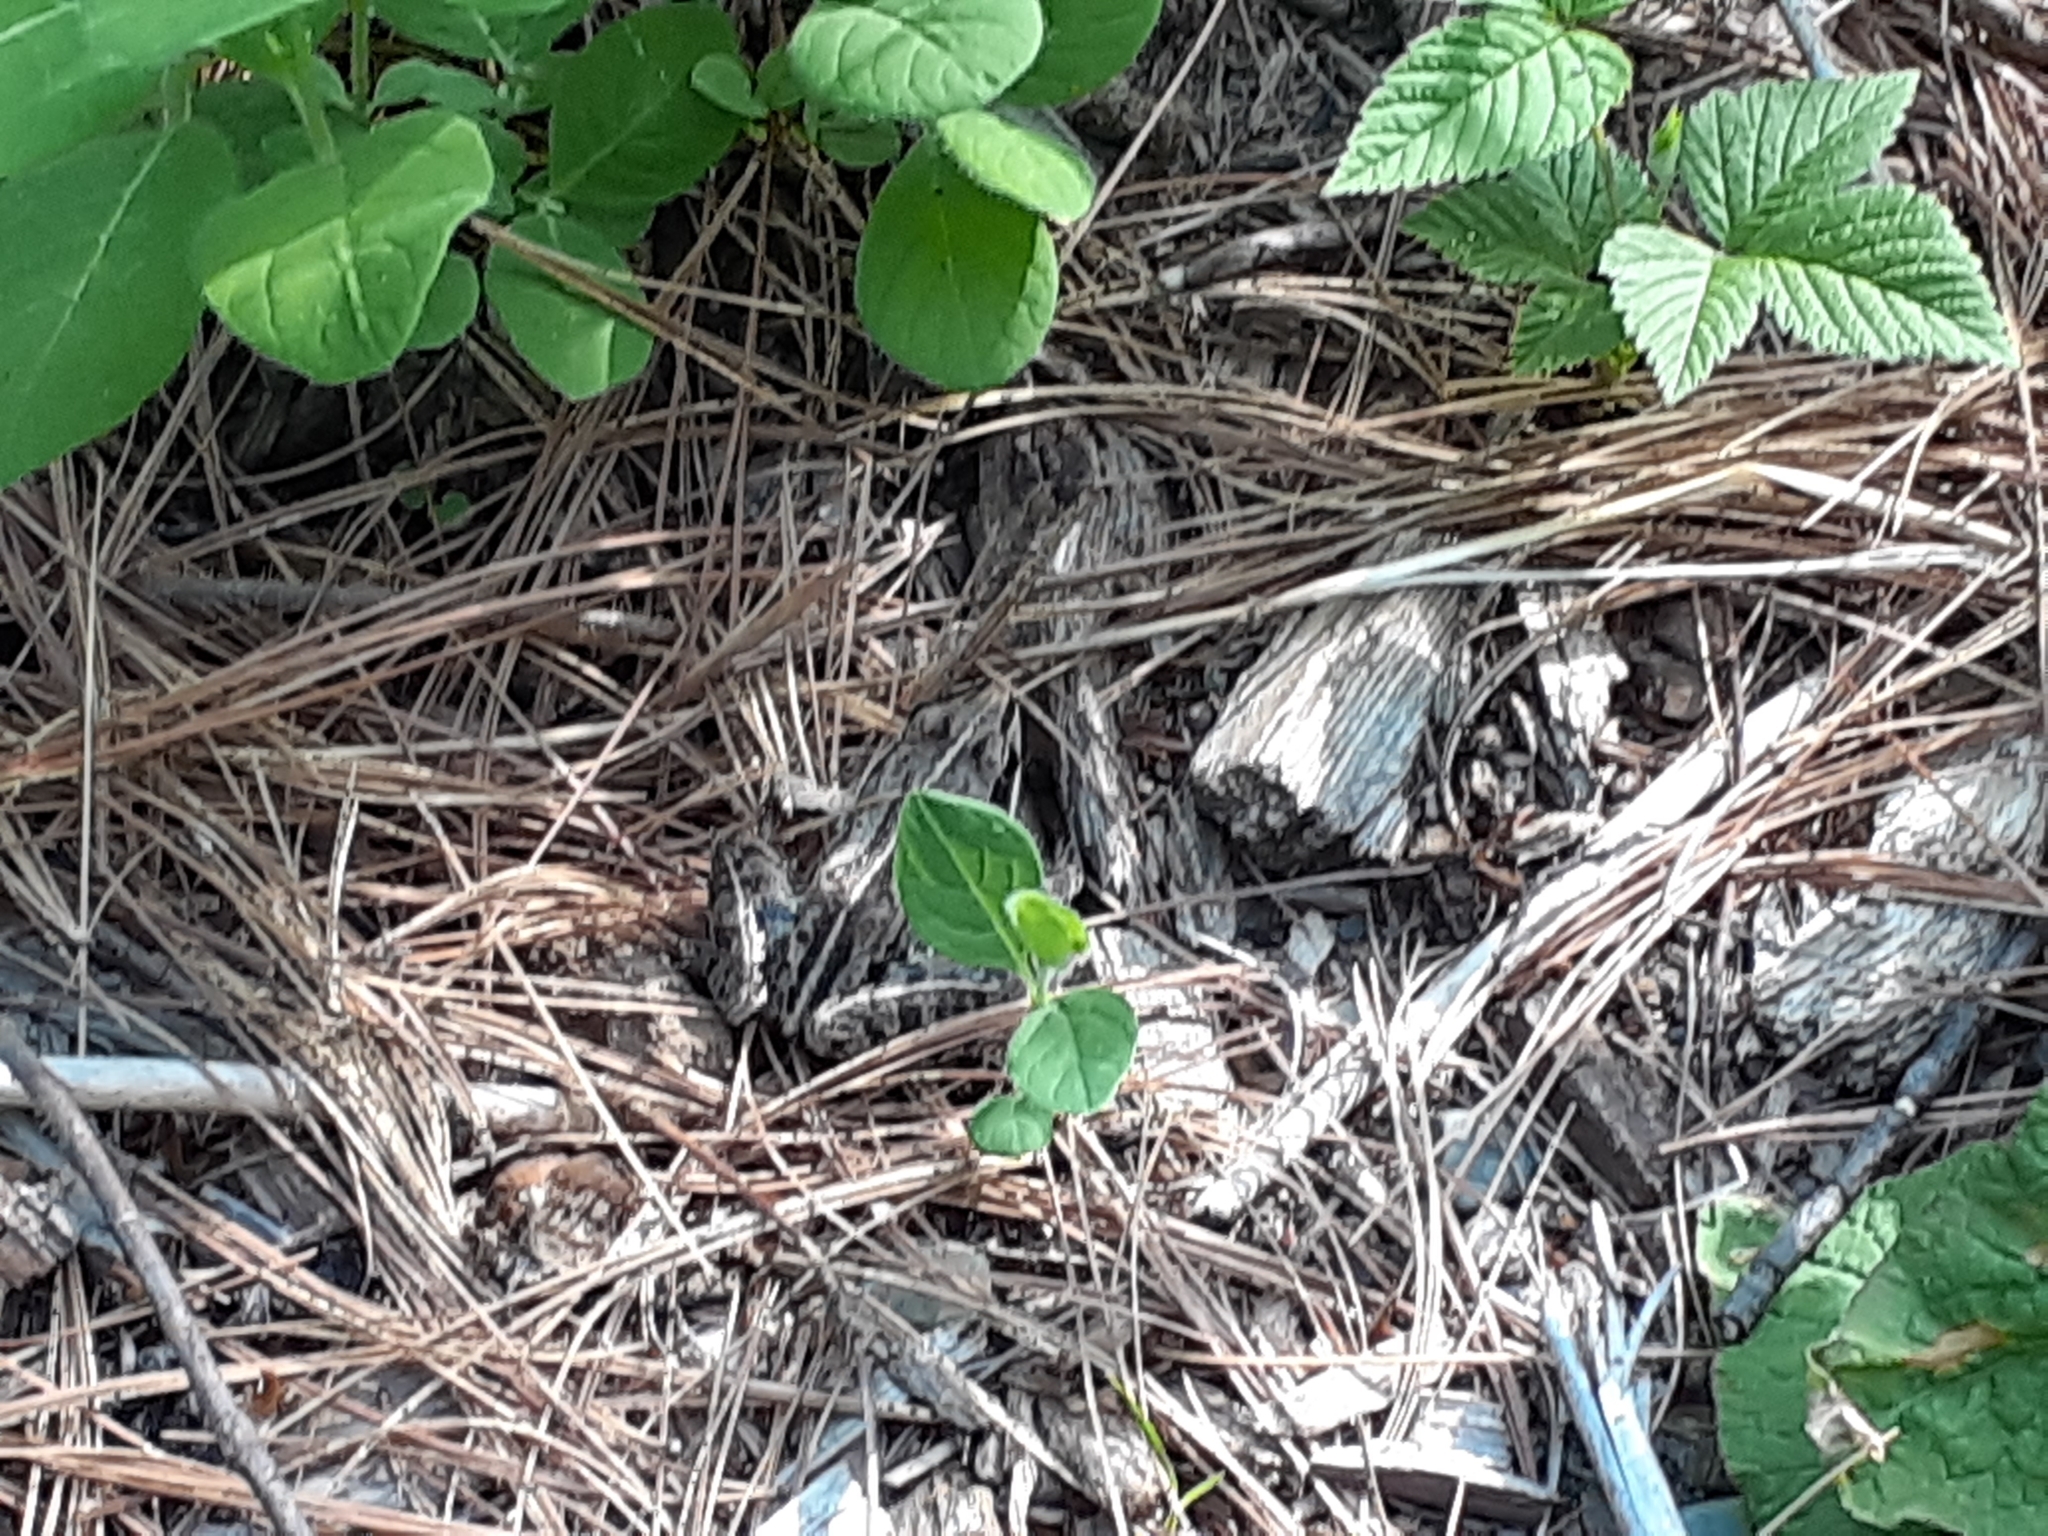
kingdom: Animalia
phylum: Chordata
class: Amphibia
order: Anura
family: Ranidae
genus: Lithobates
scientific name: Lithobates sylvaticus
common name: Wood frog
